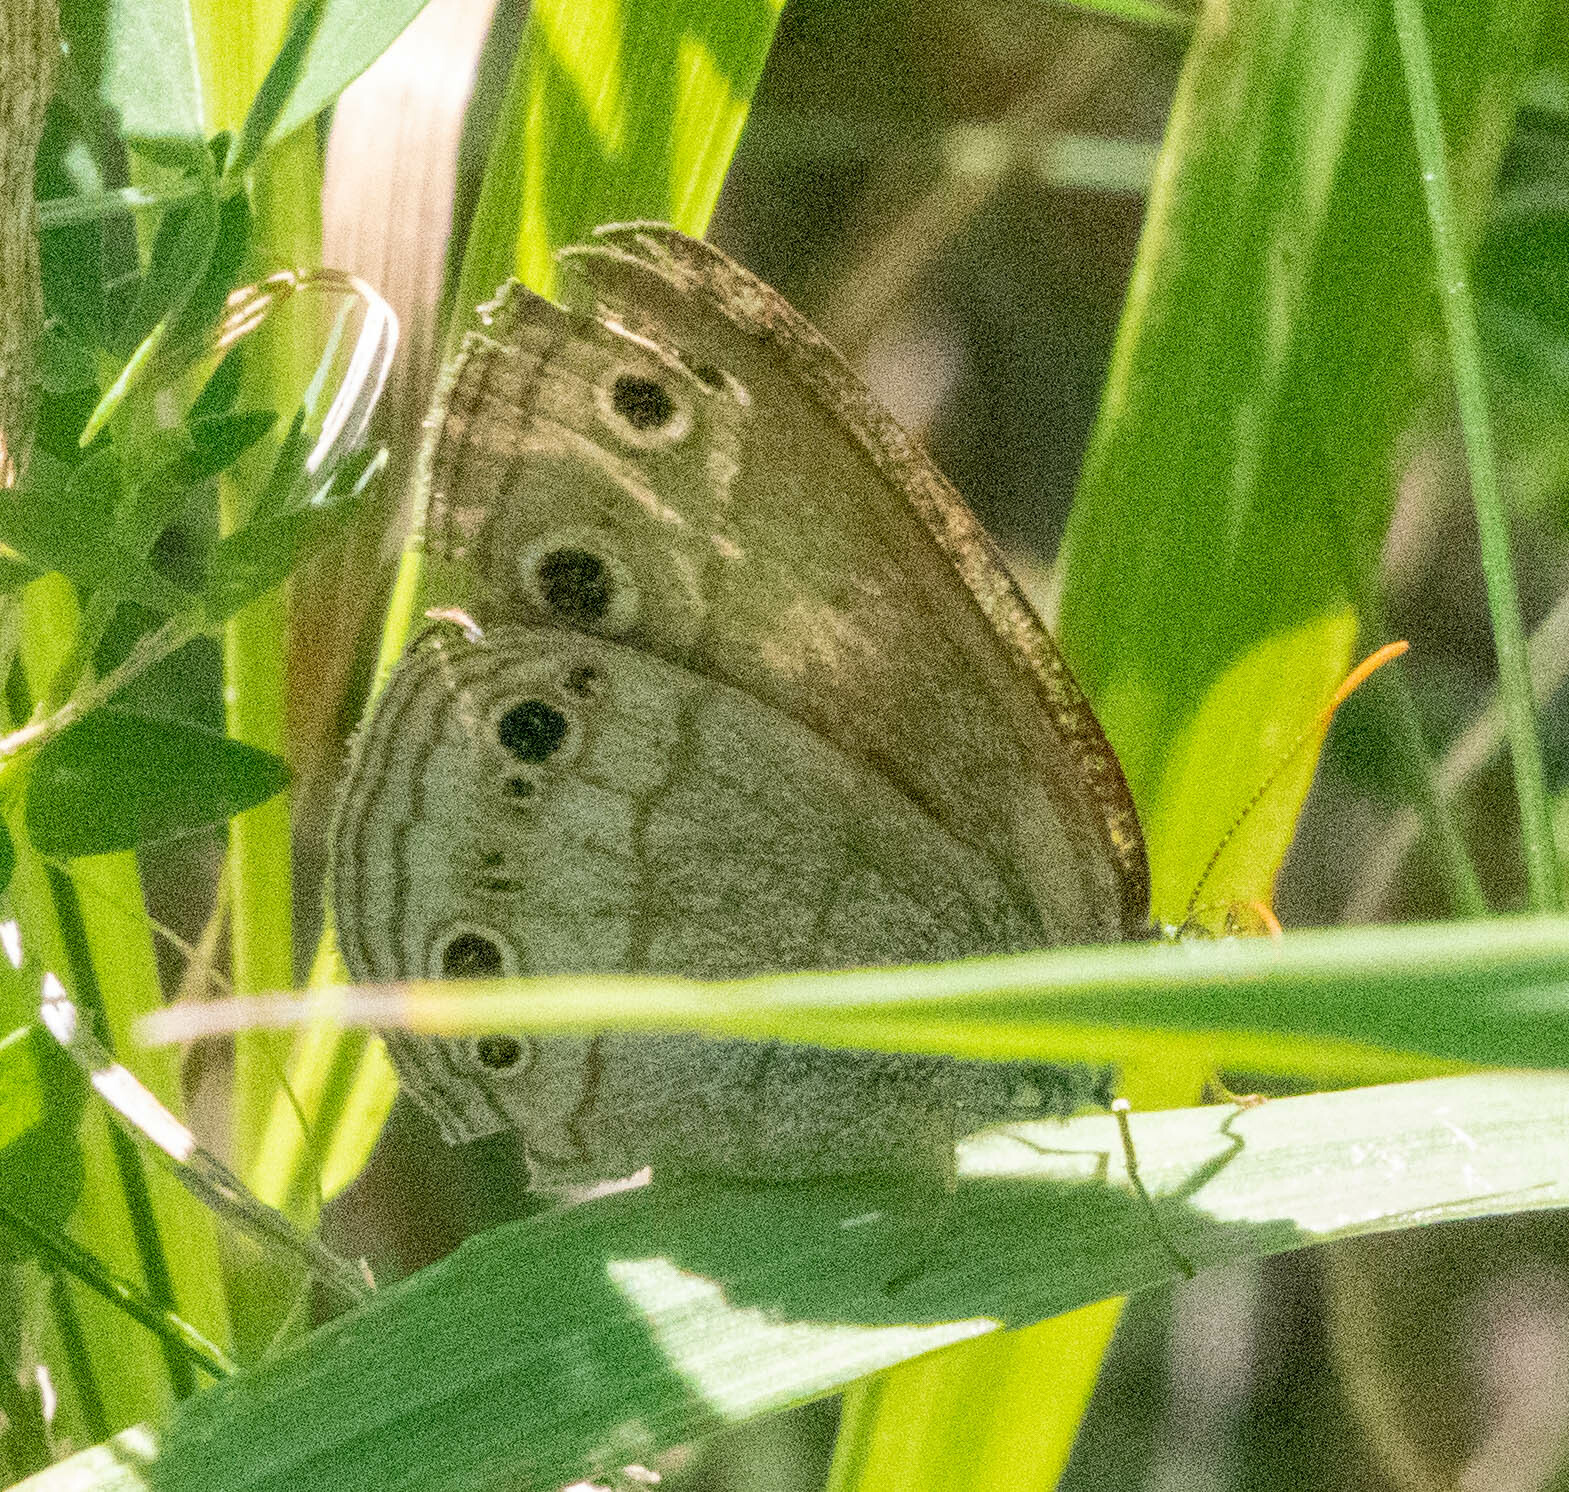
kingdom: Animalia
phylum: Arthropoda
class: Insecta
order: Lepidoptera
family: Nymphalidae
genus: Euptychia
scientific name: Euptychia cymela
